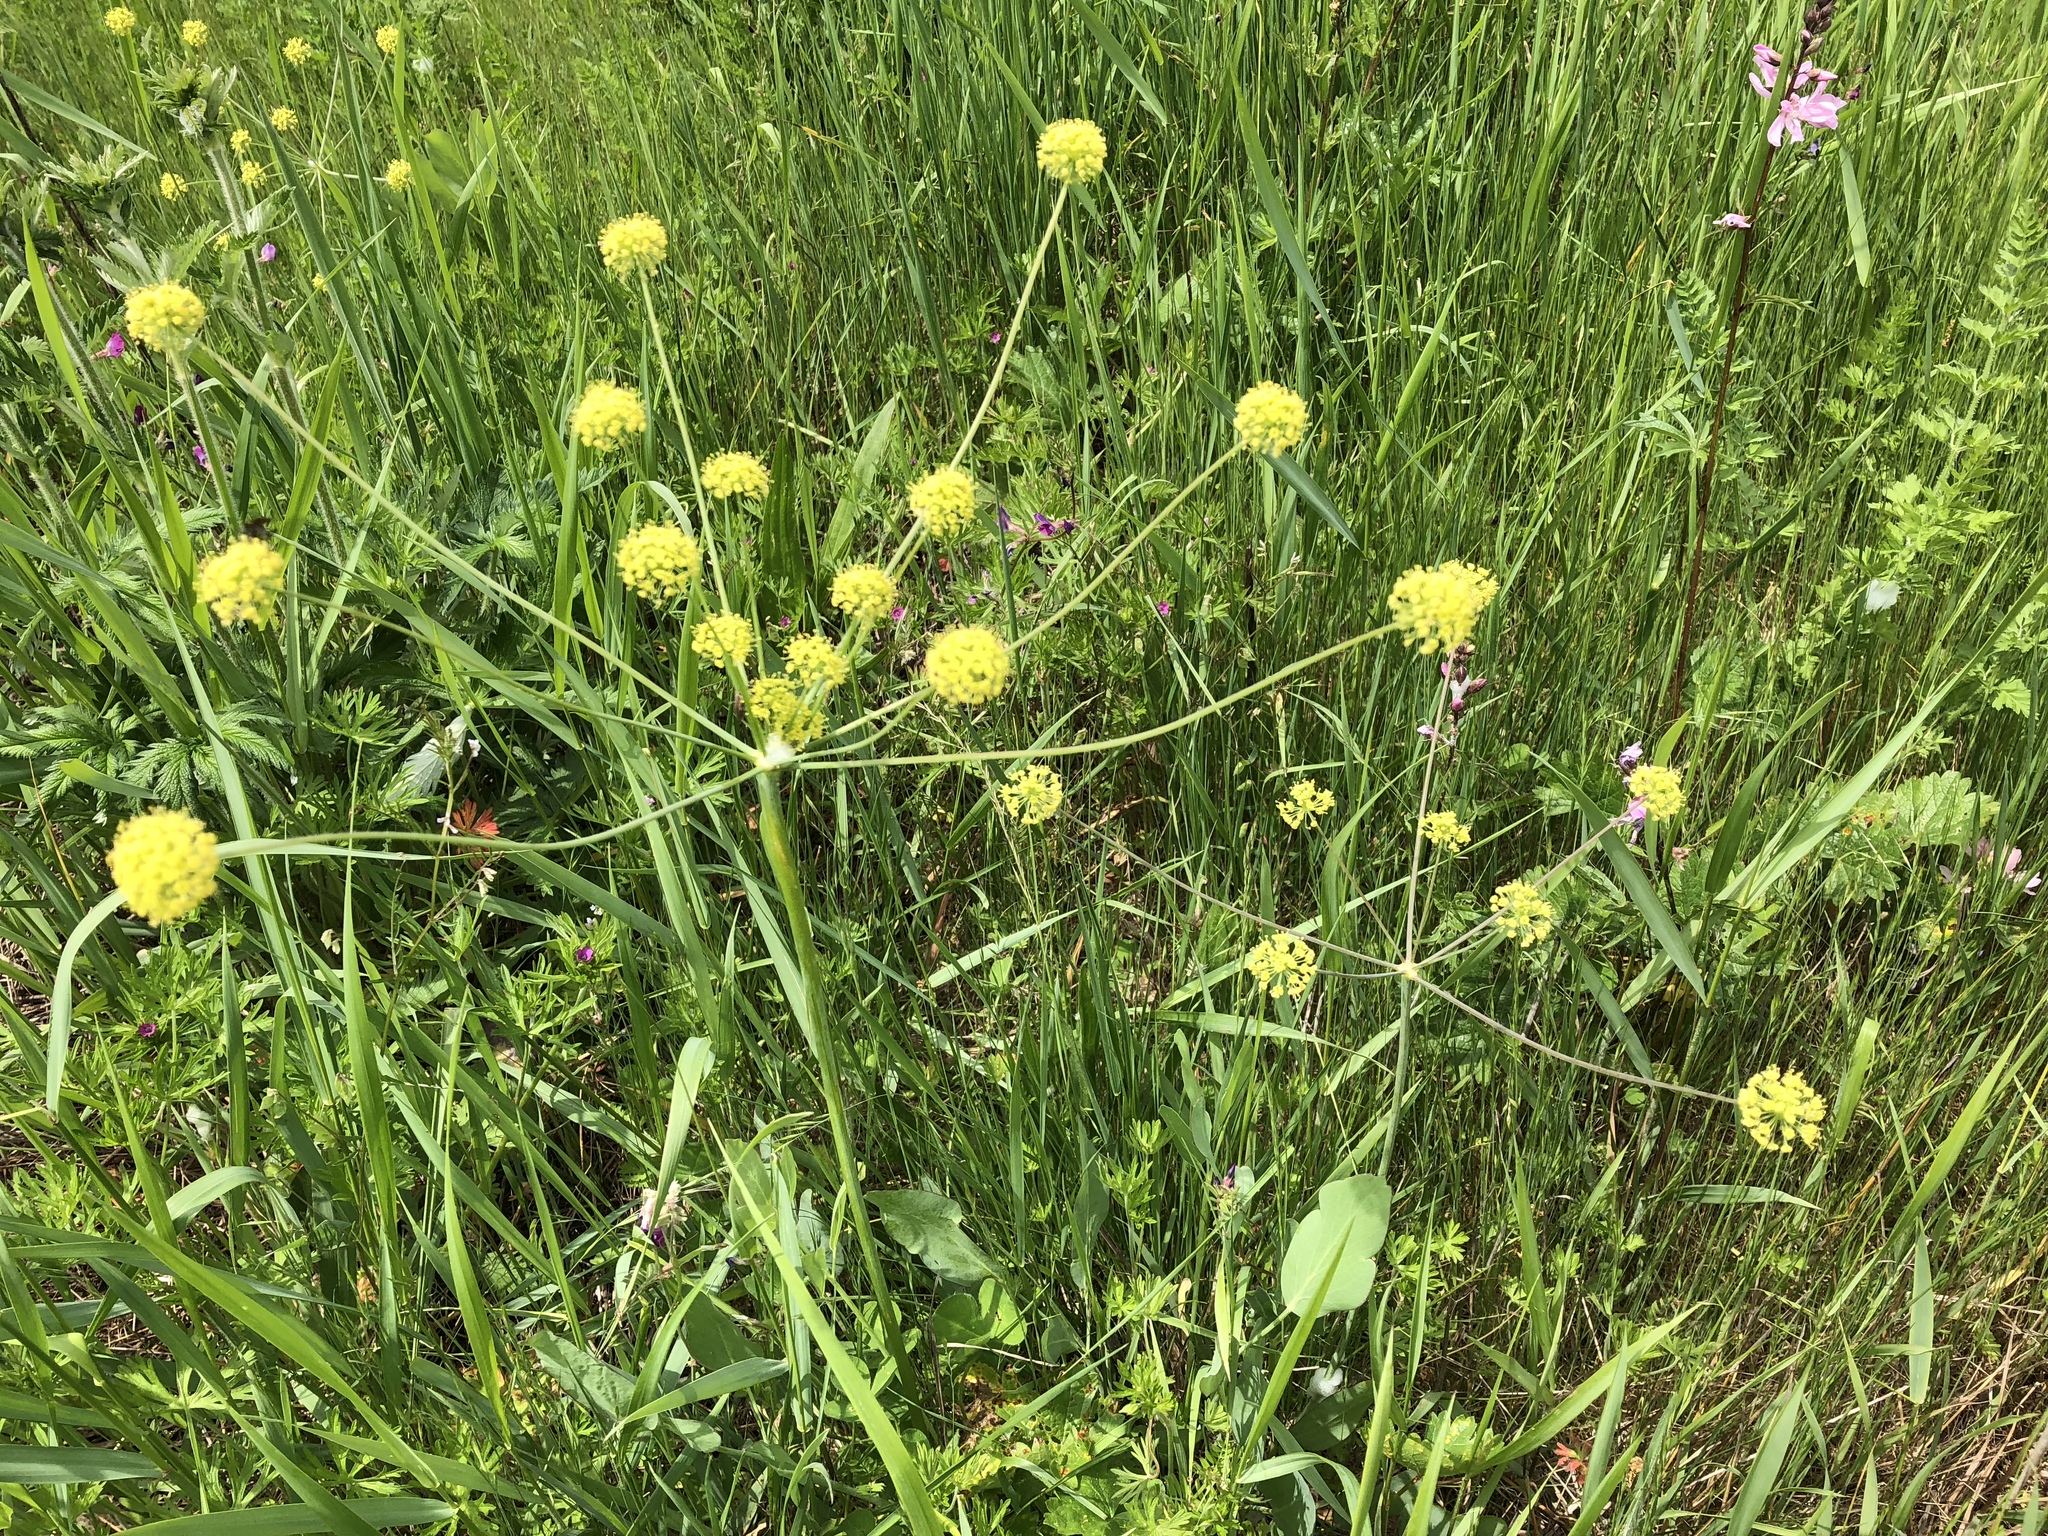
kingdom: Plantae
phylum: Tracheophyta
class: Magnoliopsida
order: Apiales
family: Apiaceae
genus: Lomatium
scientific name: Lomatium nudicaule
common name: Pestle lomatium
